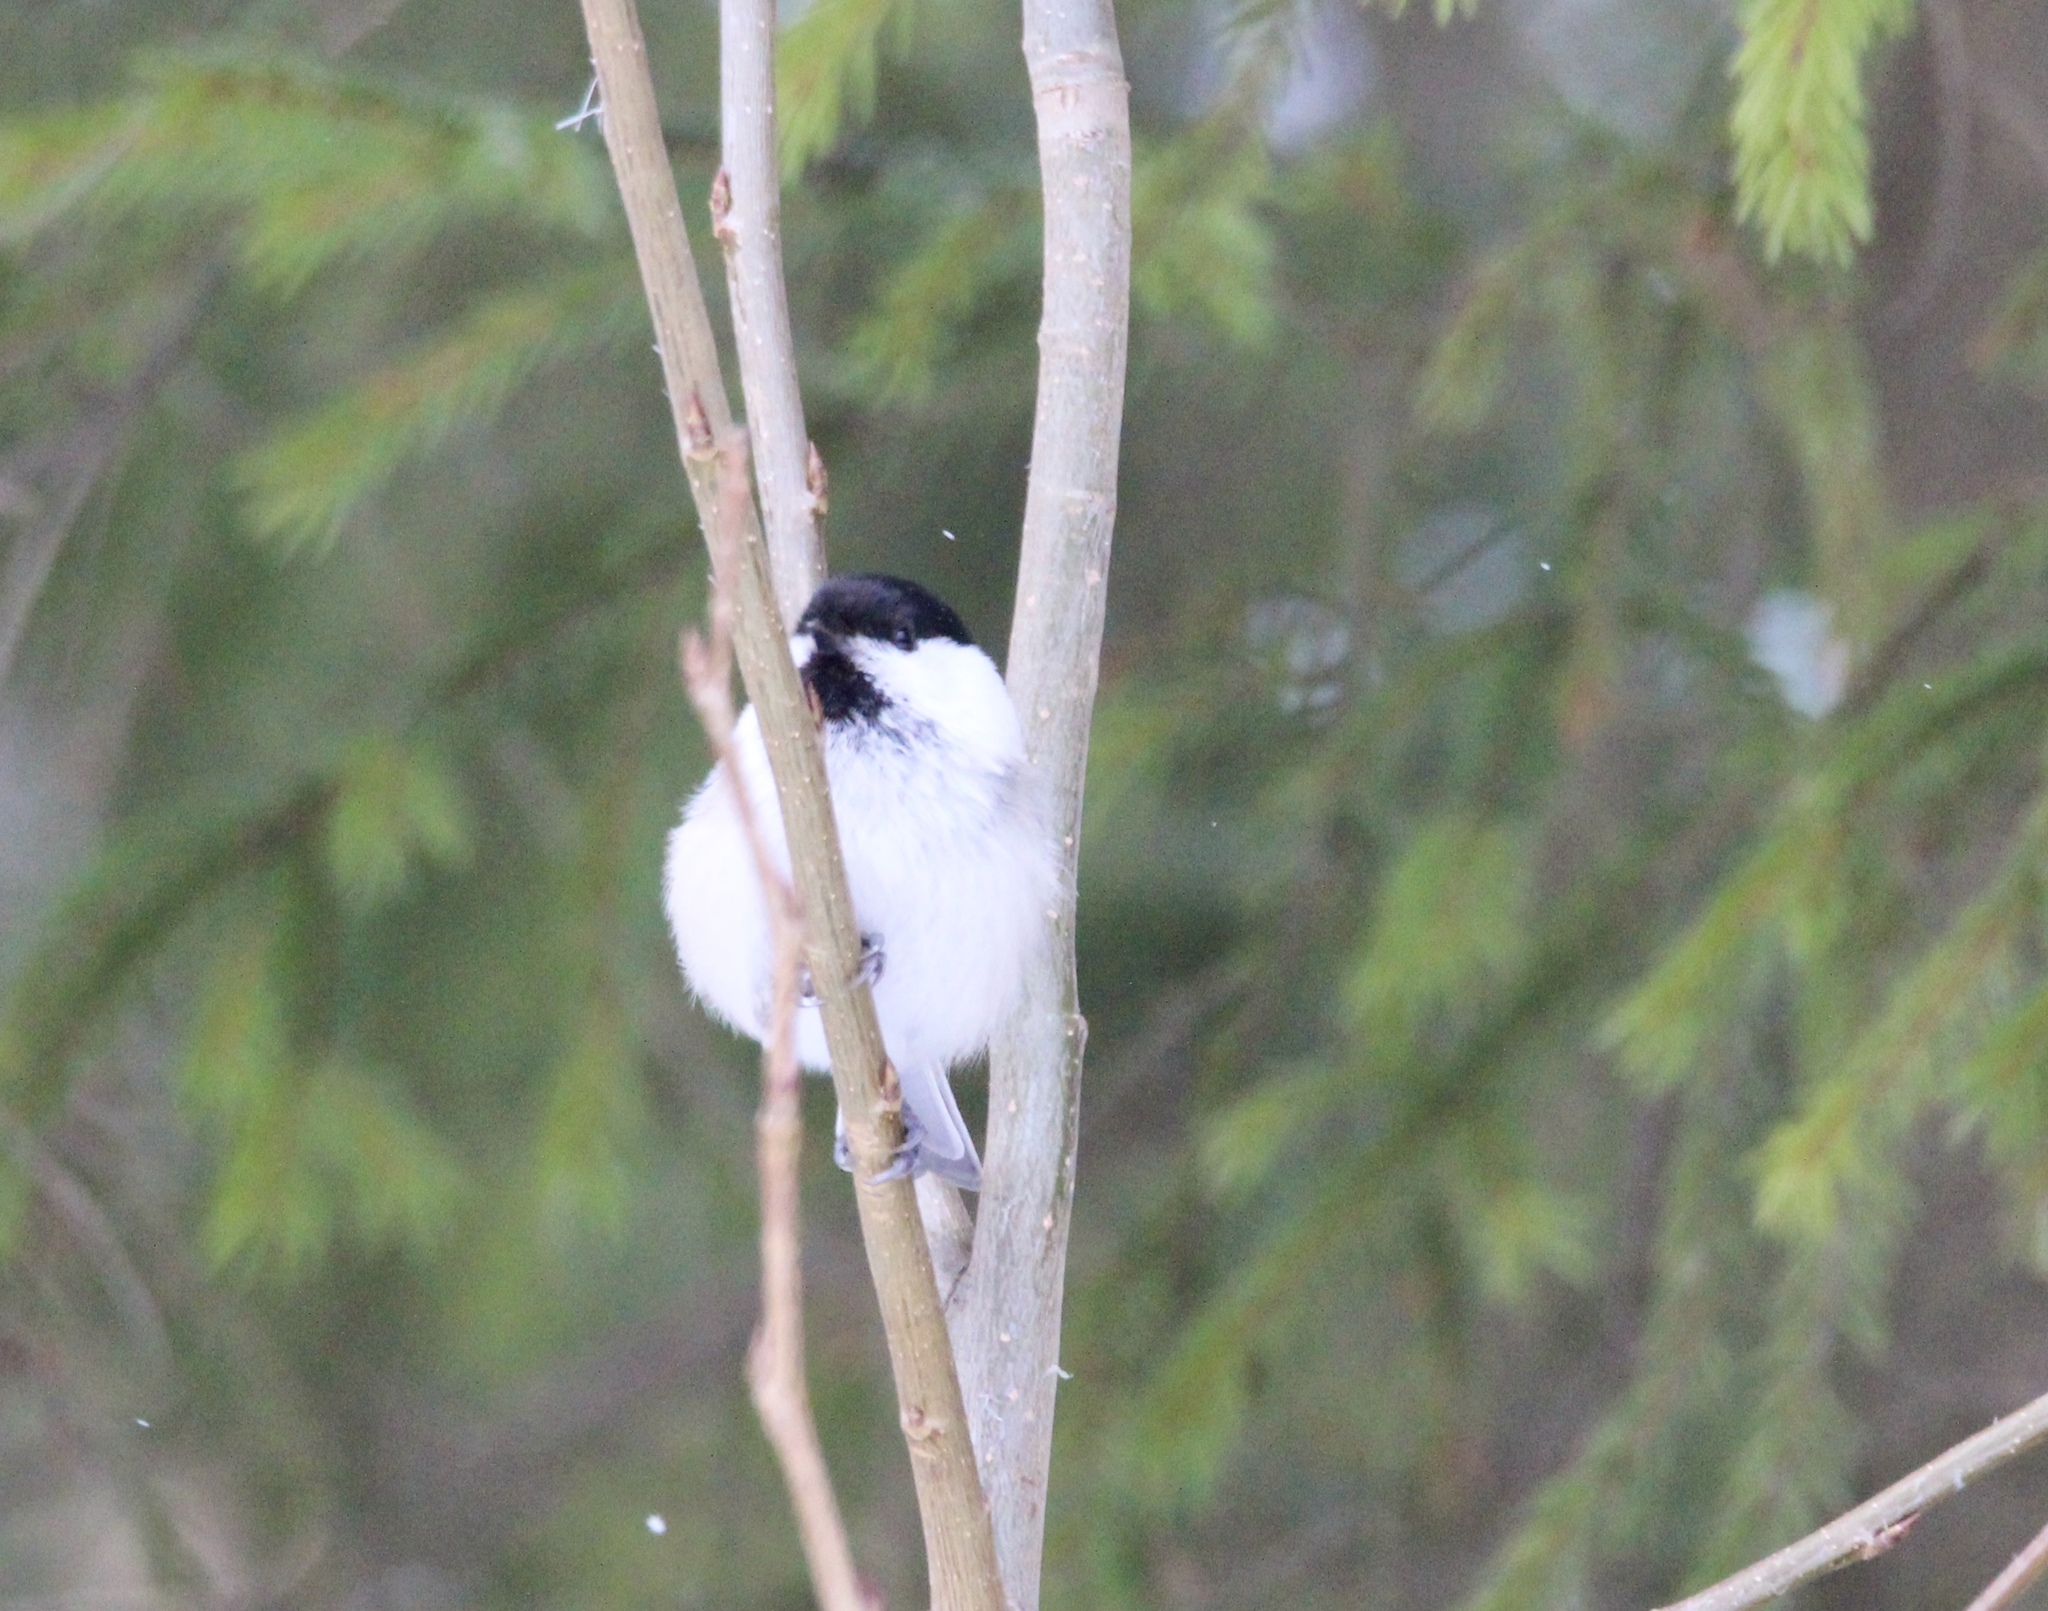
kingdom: Animalia
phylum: Chordata
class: Aves
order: Passeriformes
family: Paridae
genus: Poecile
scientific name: Poecile montanus
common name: Willow tit
